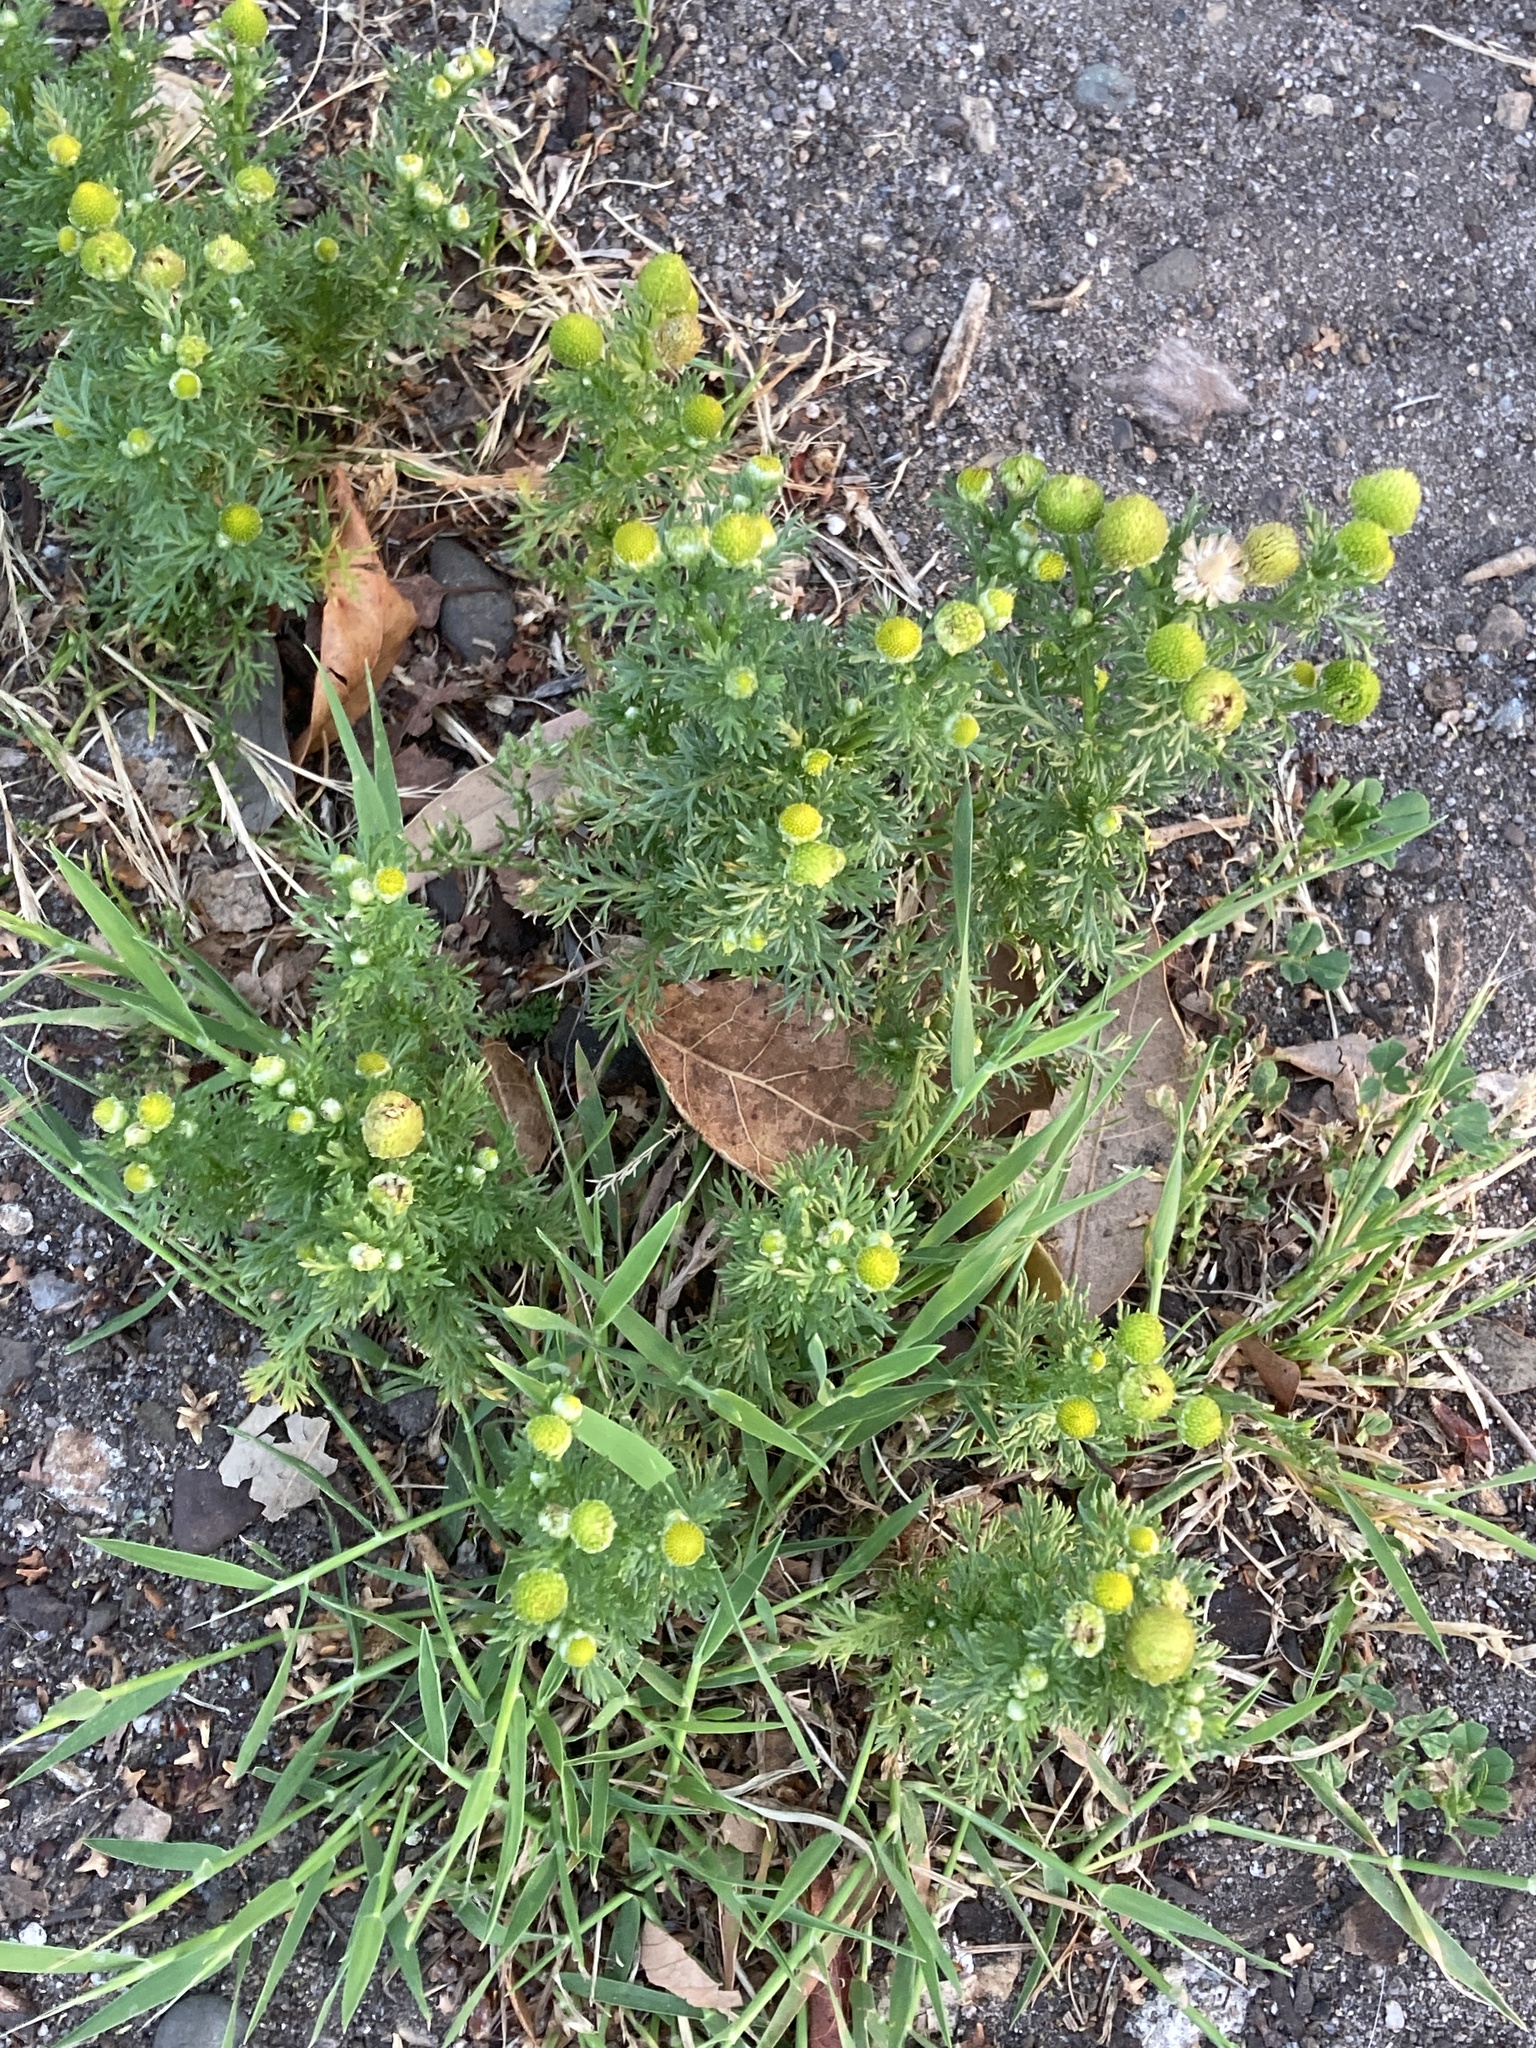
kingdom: Plantae
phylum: Tracheophyta
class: Magnoliopsida
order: Asterales
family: Asteraceae
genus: Matricaria
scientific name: Matricaria discoidea
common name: Disc mayweed
